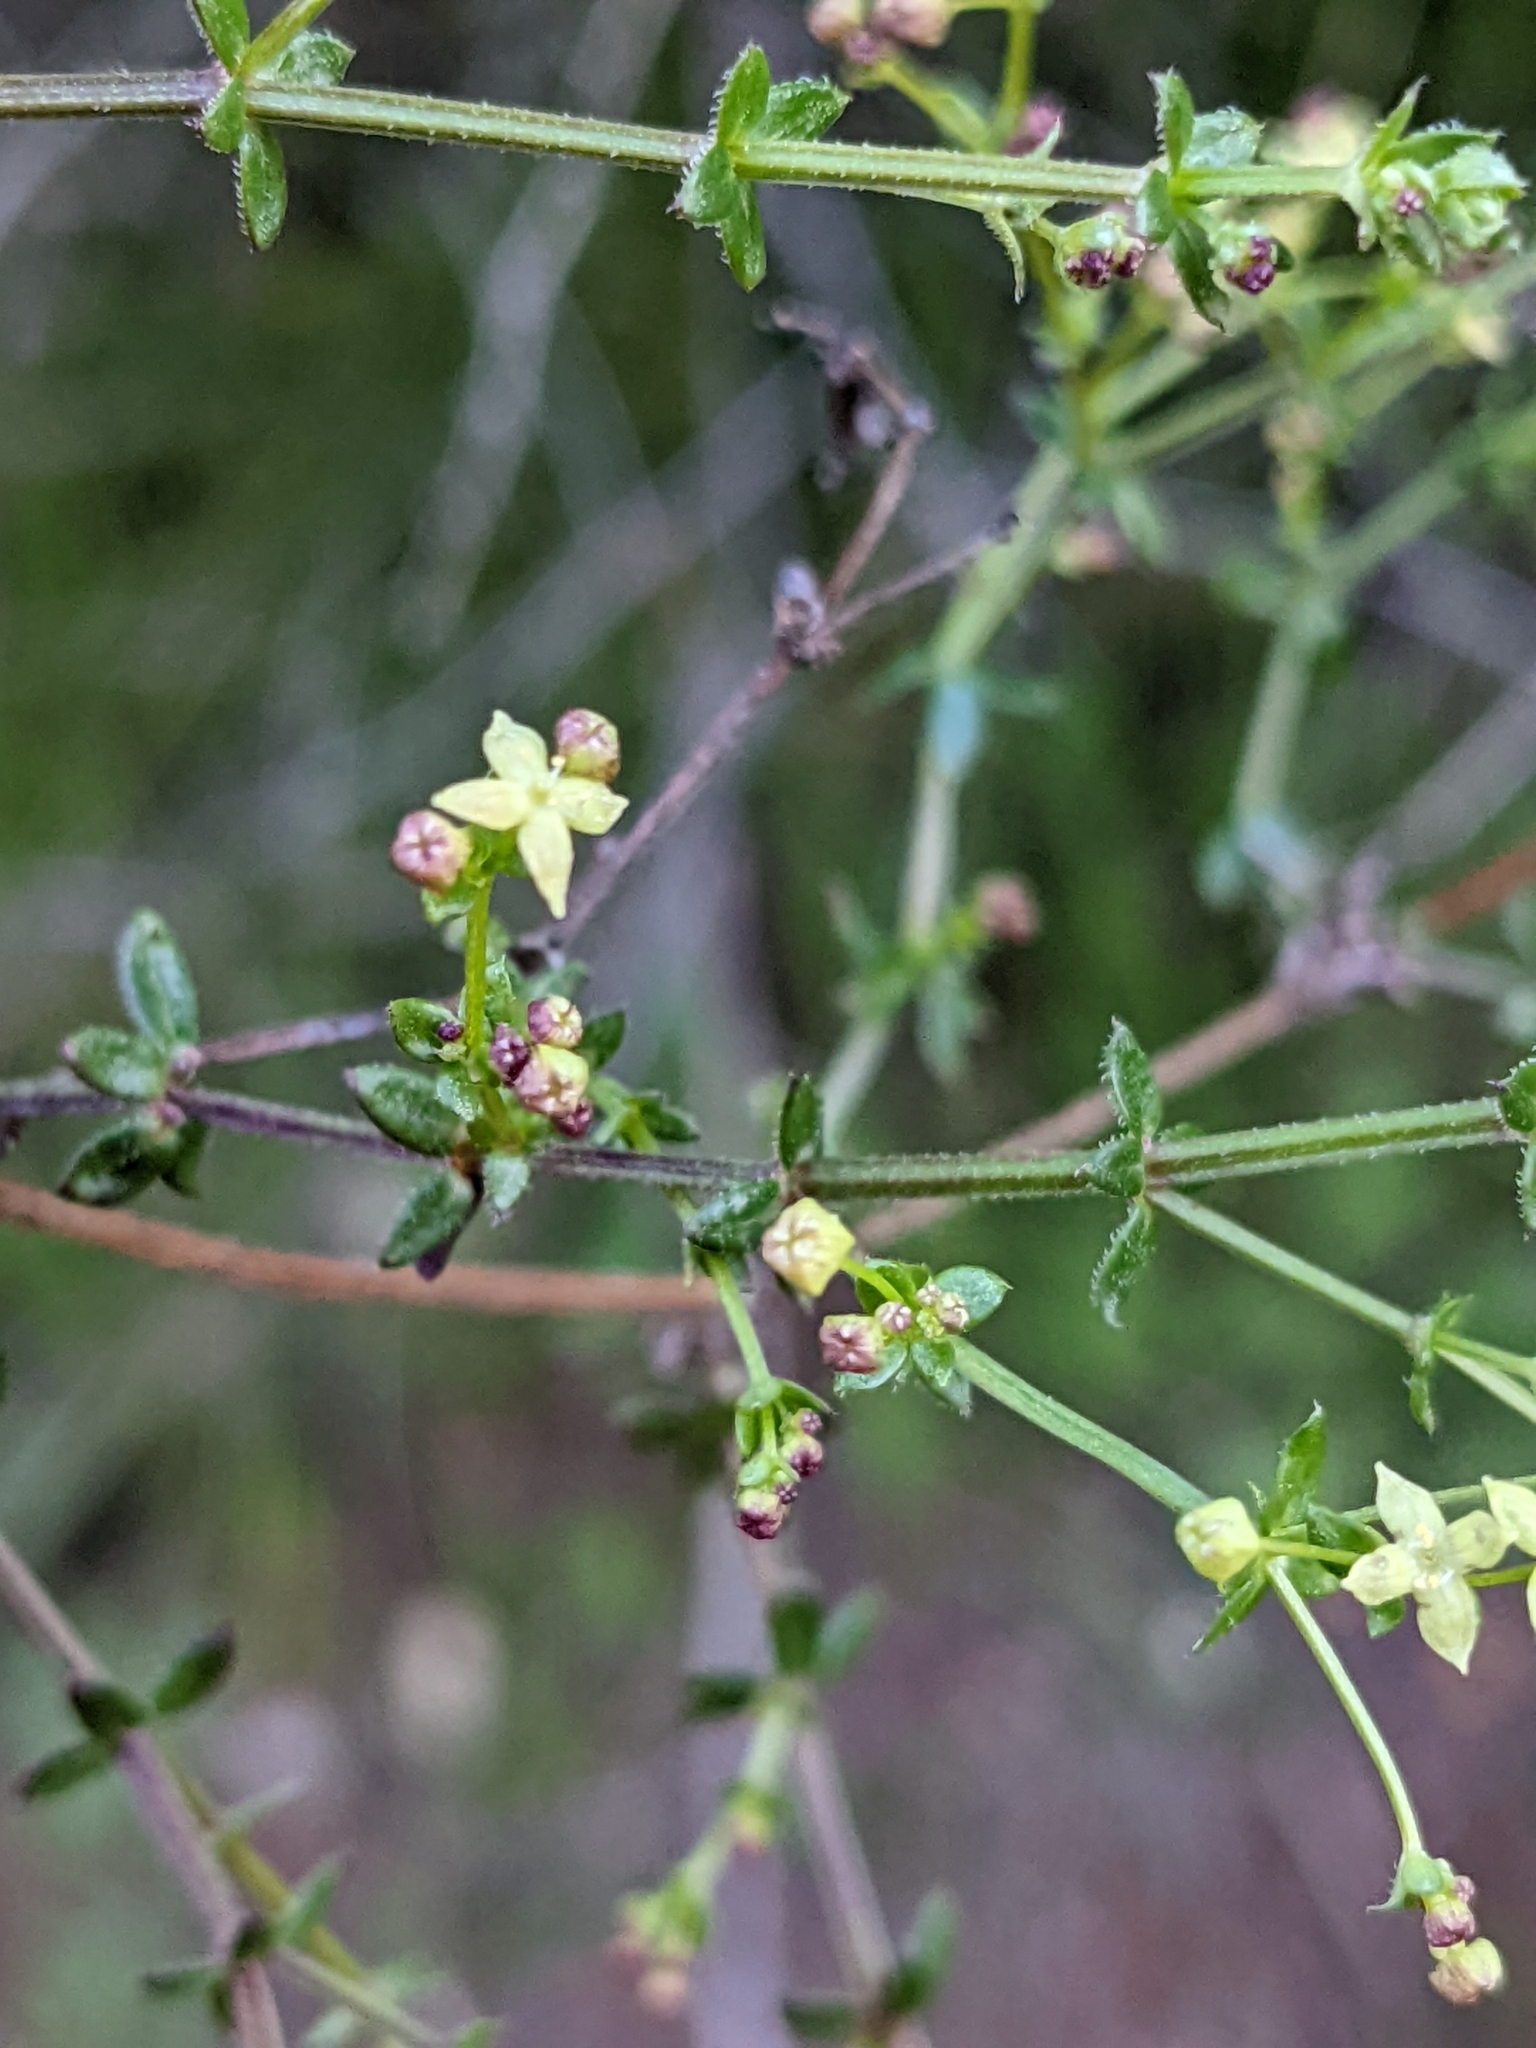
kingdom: Plantae
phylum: Tracheophyta
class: Magnoliopsida
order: Gentianales
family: Rubiaceae
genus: Galium
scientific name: Galium porrigens
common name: Climbing bedstraw
